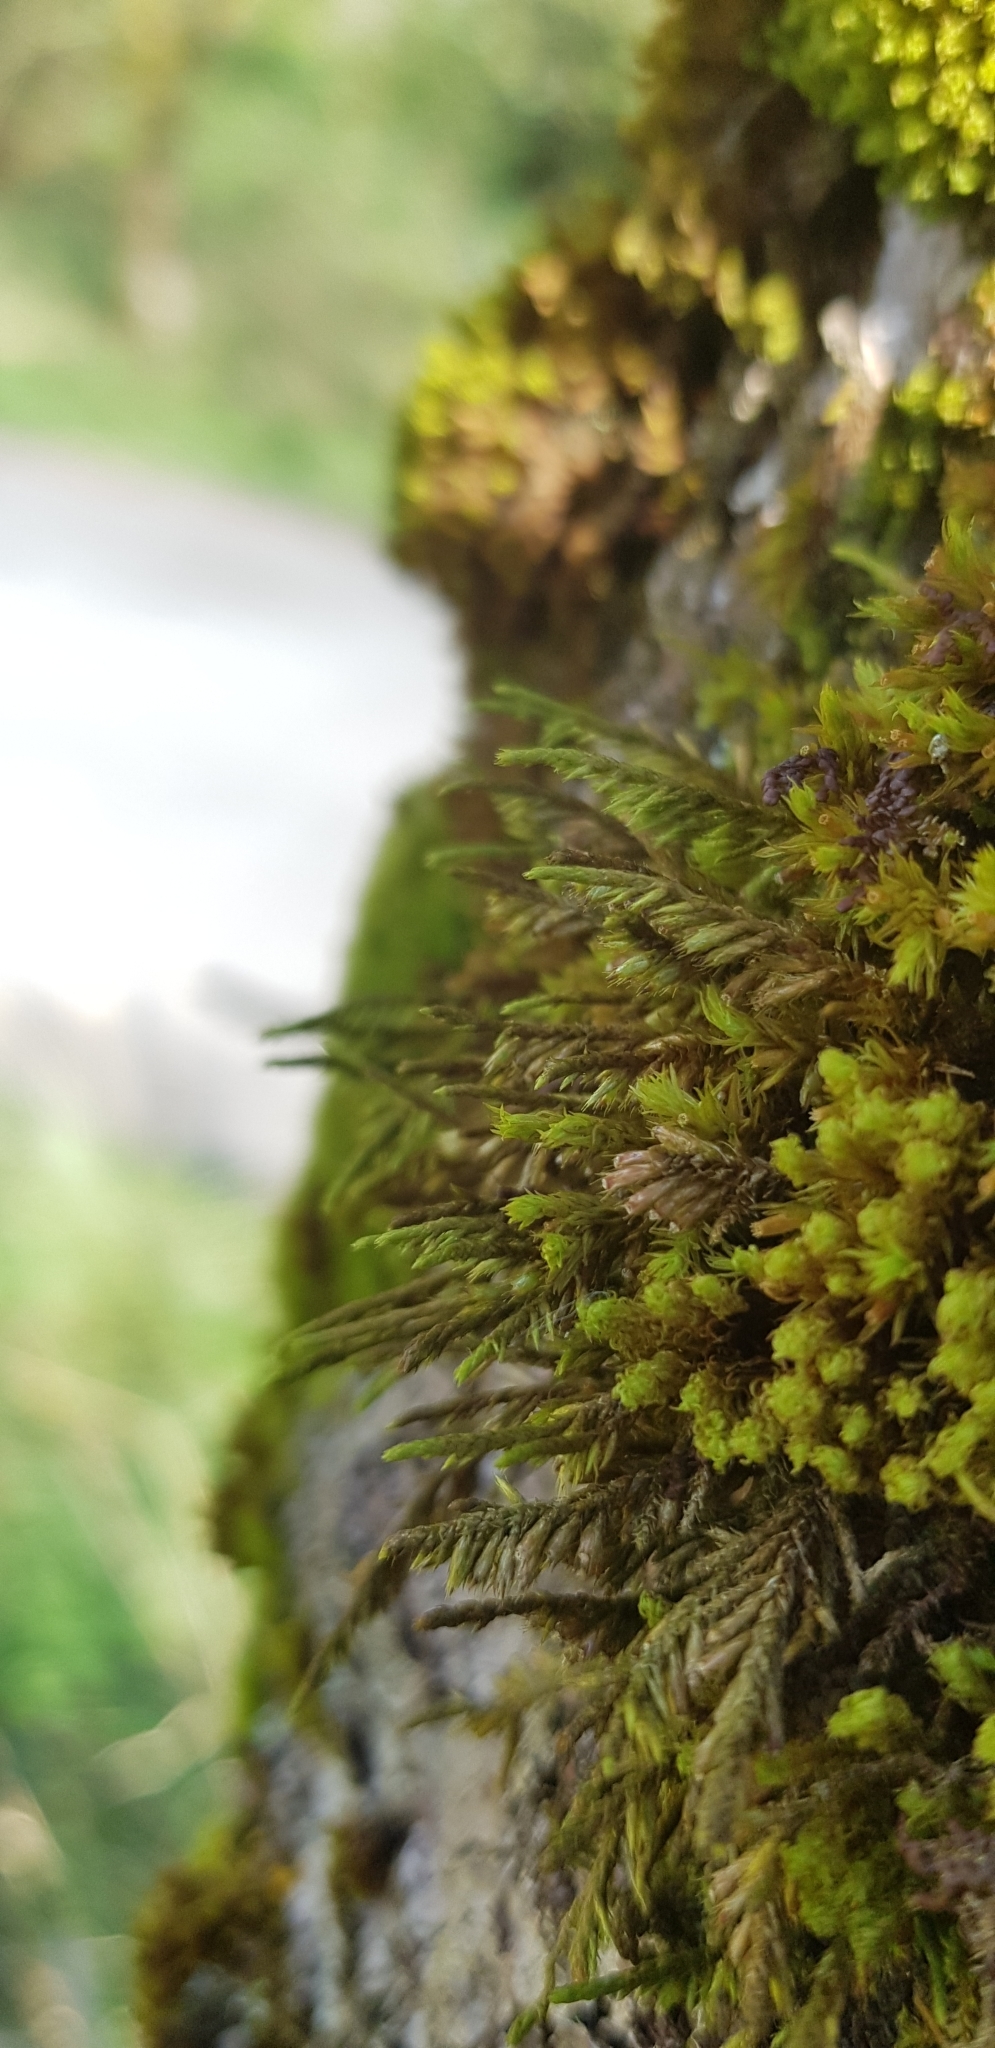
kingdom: Plantae
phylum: Bryophyta
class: Bryopsida
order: Hypnales
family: Cryphaeaceae
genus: Cryphaea
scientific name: Cryphaea heteromalla
